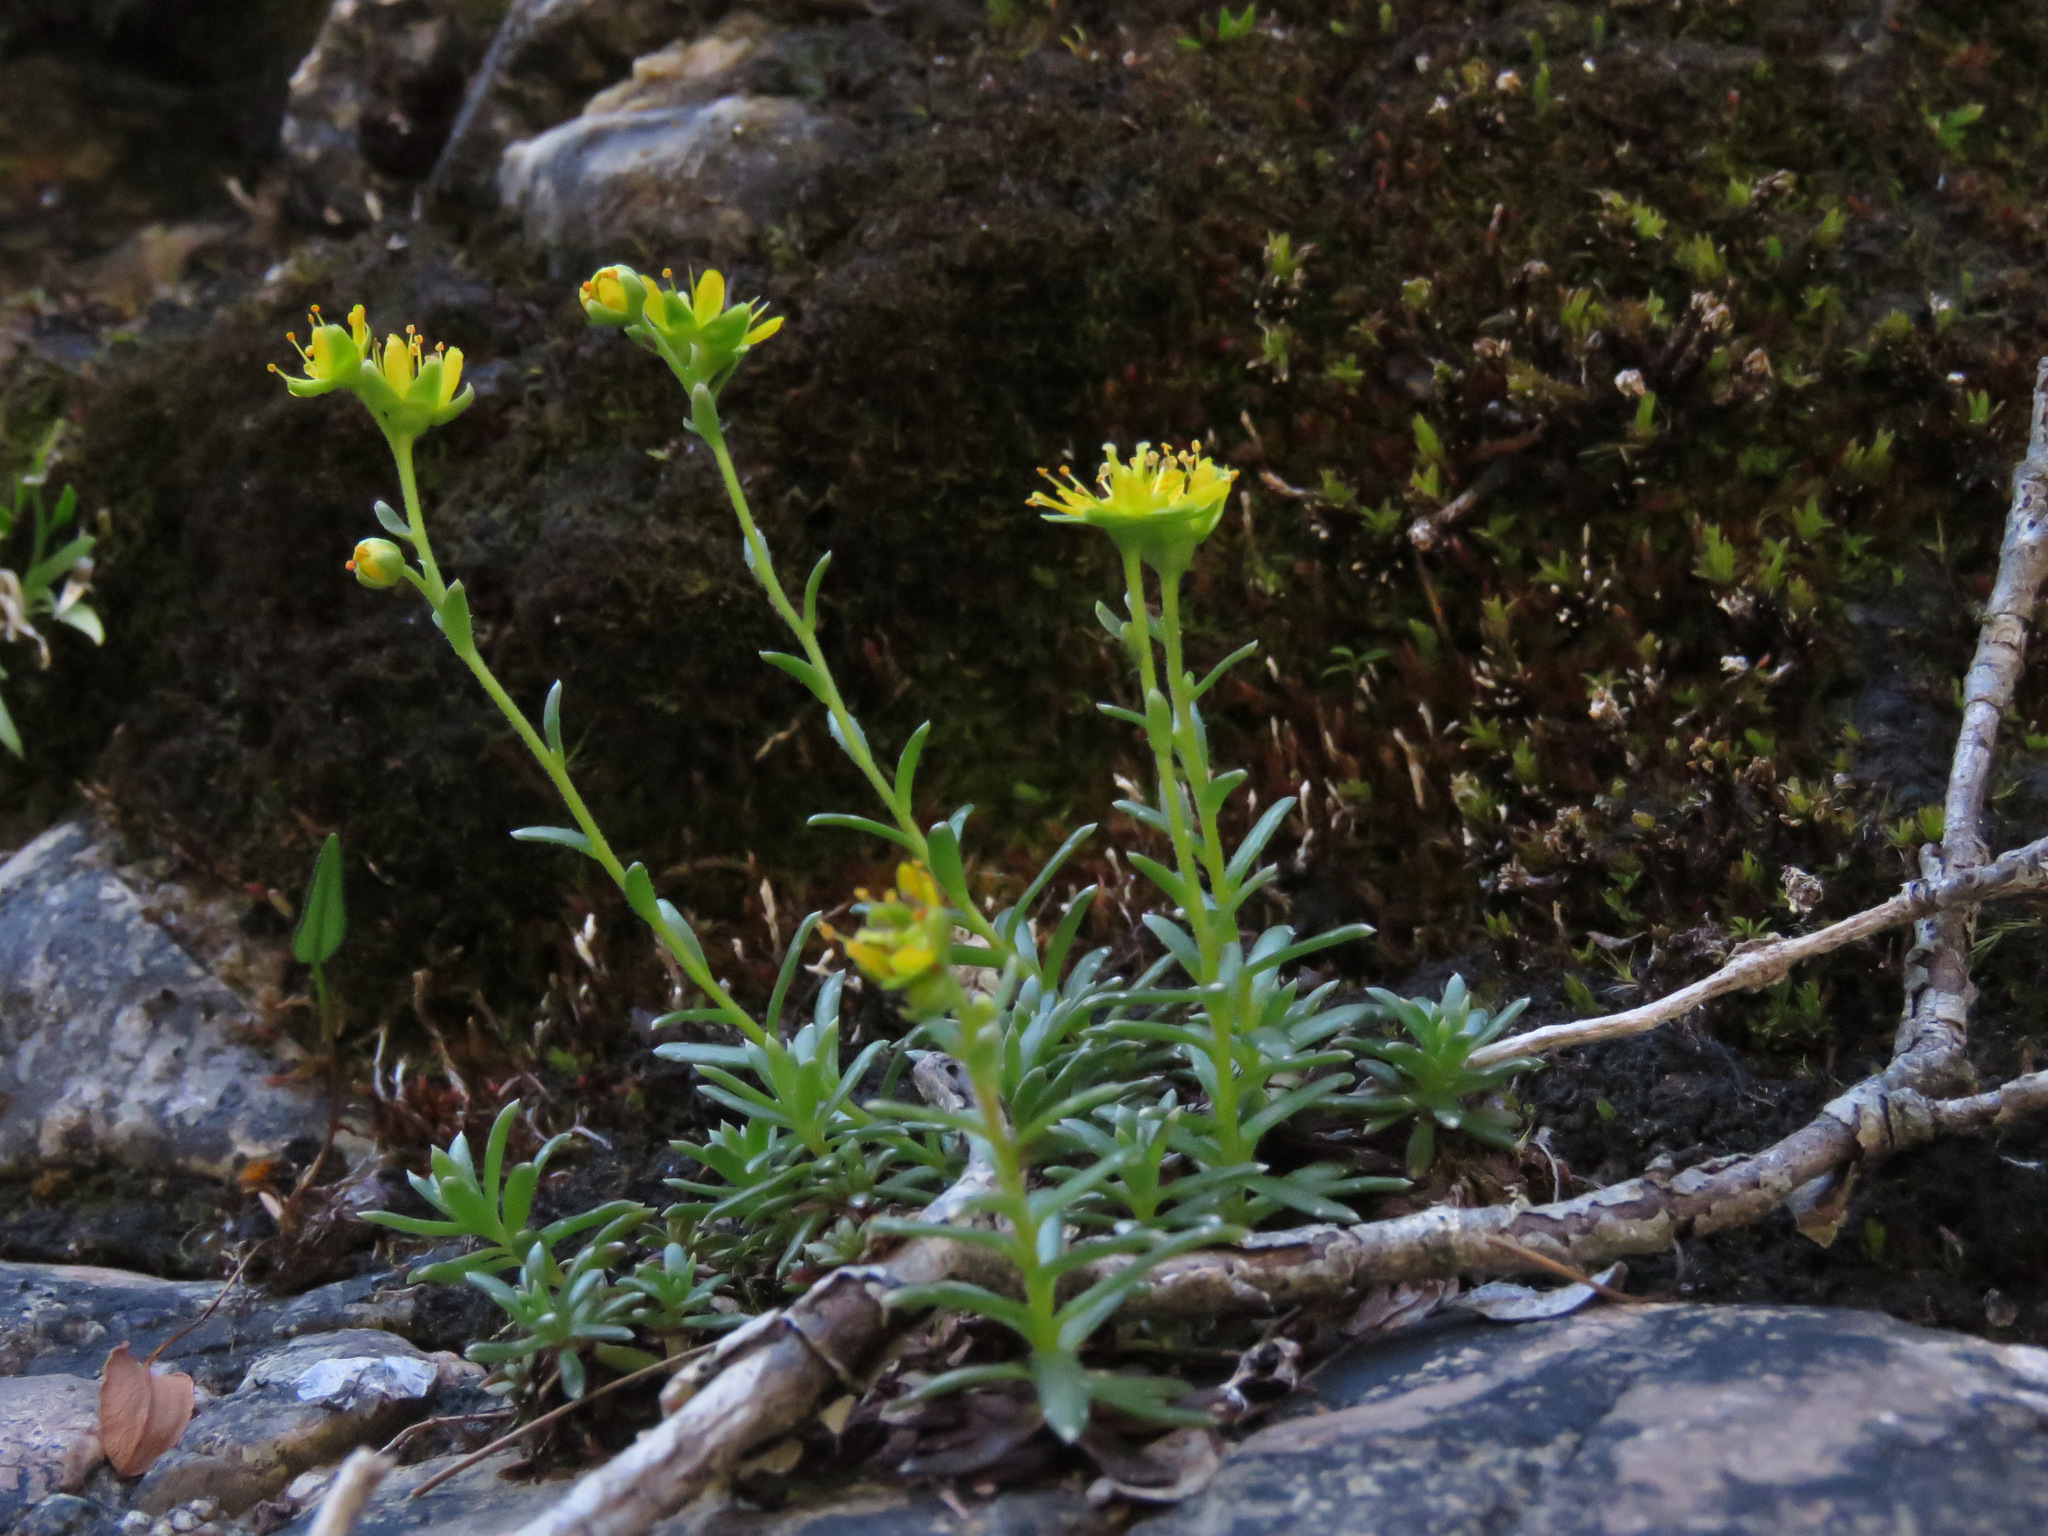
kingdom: Plantae
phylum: Tracheophyta
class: Magnoliopsida
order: Saxifragales
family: Saxifragaceae
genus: Saxifraga
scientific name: Saxifraga aizoides
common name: Yellow mountain saxifrage
